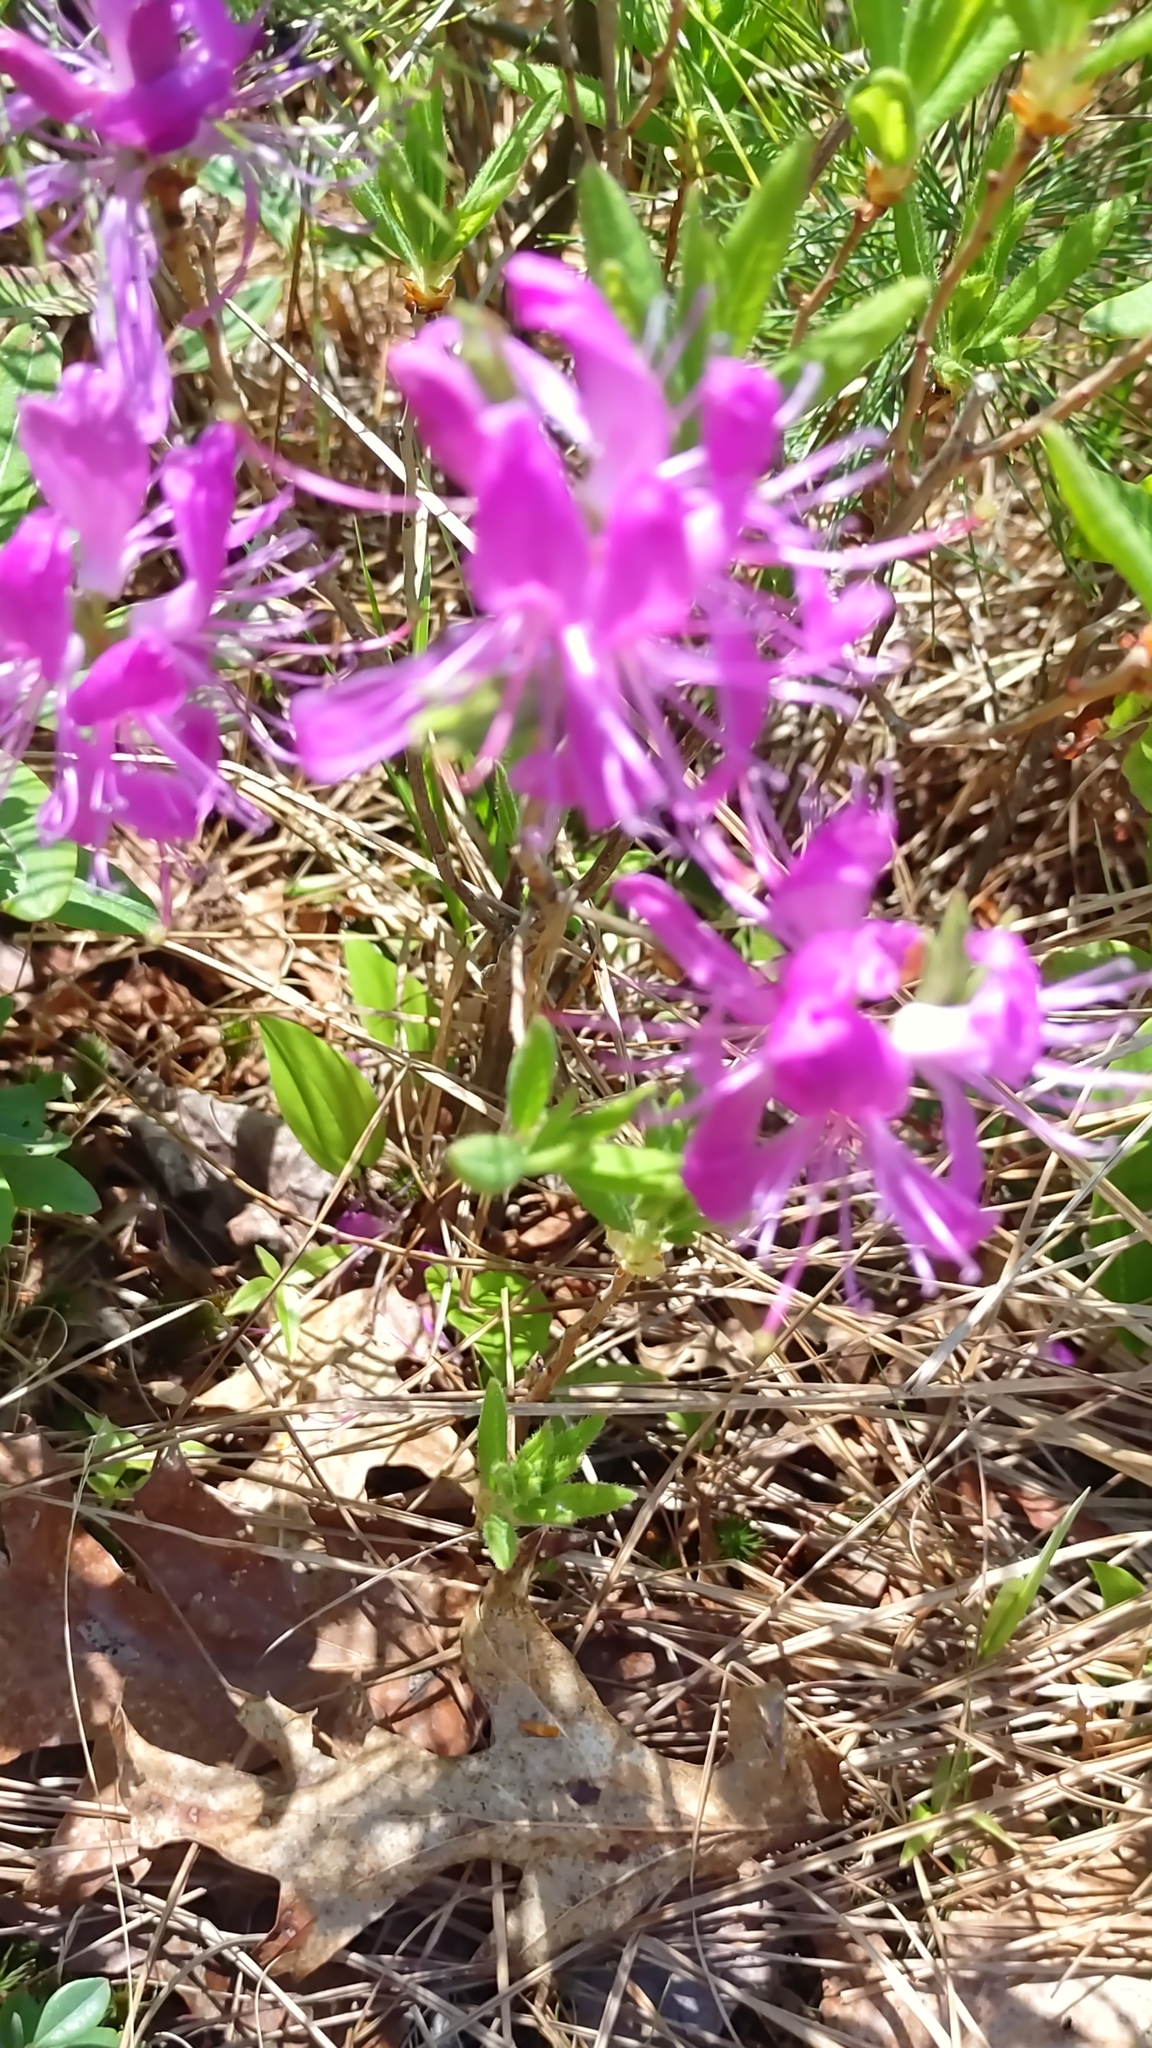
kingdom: Plantae
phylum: Tracheophyta
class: Magnoliopsida
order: Ericales
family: Ericaceae
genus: Rhododendron
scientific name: Rhododendron canadense
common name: Rhodora
